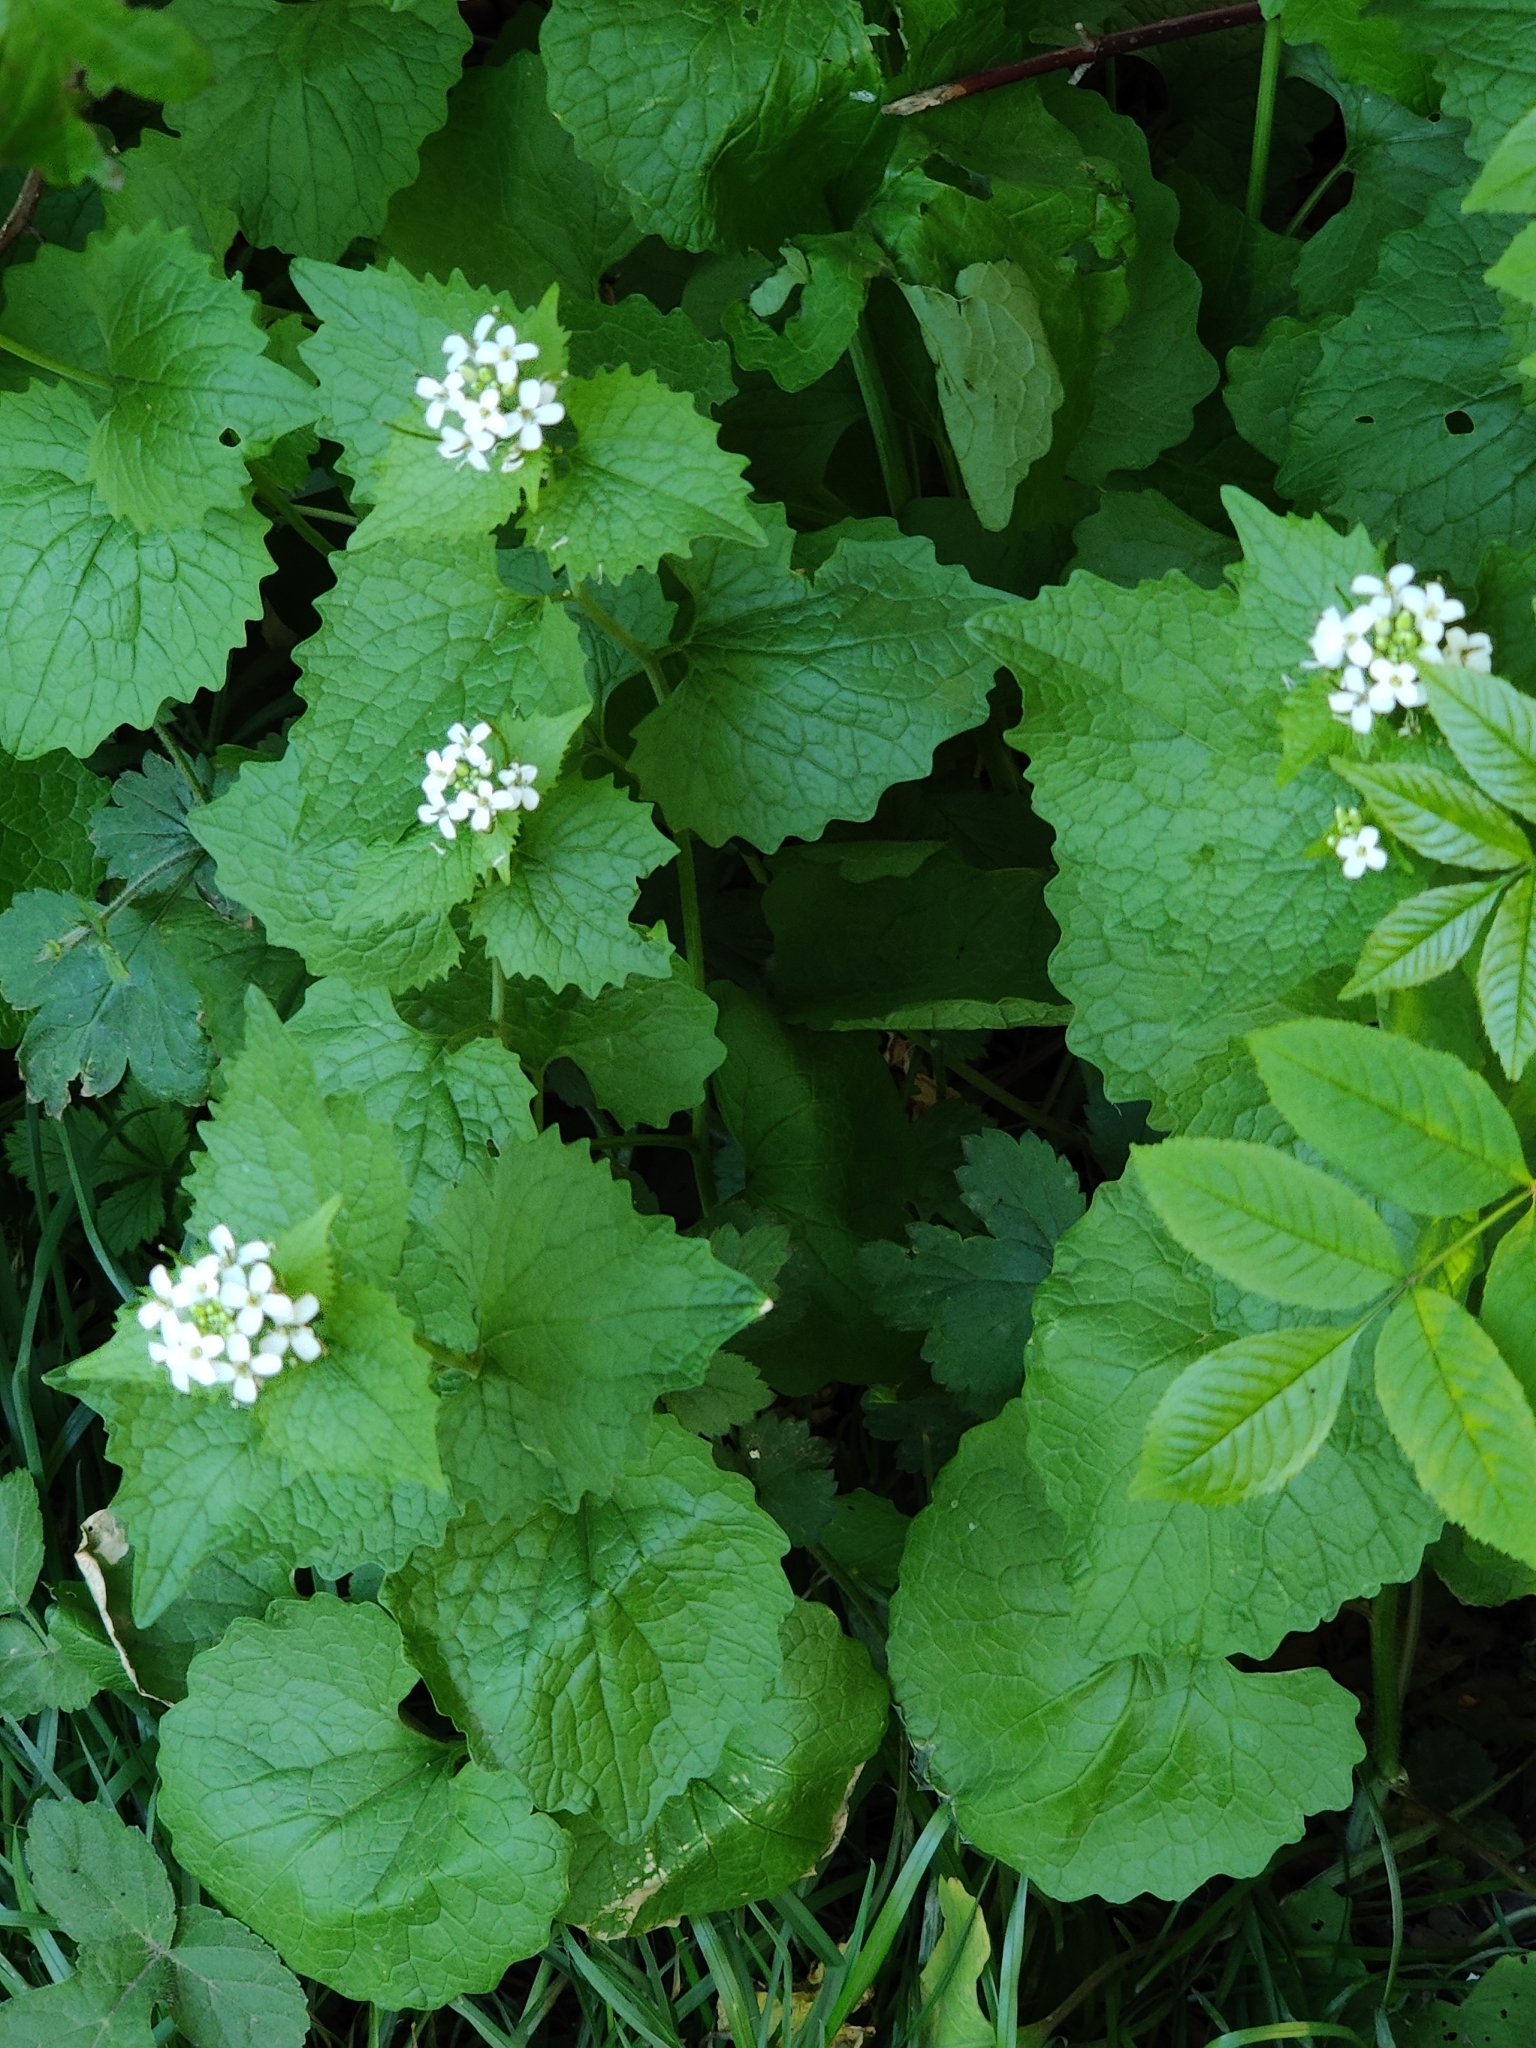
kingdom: Plantae
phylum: Tracheophyta
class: Magnoliopsida
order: Brassicales
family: Brassicaceae
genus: Alliaria
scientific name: Alliaria petiolata
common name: Garlic mustard
